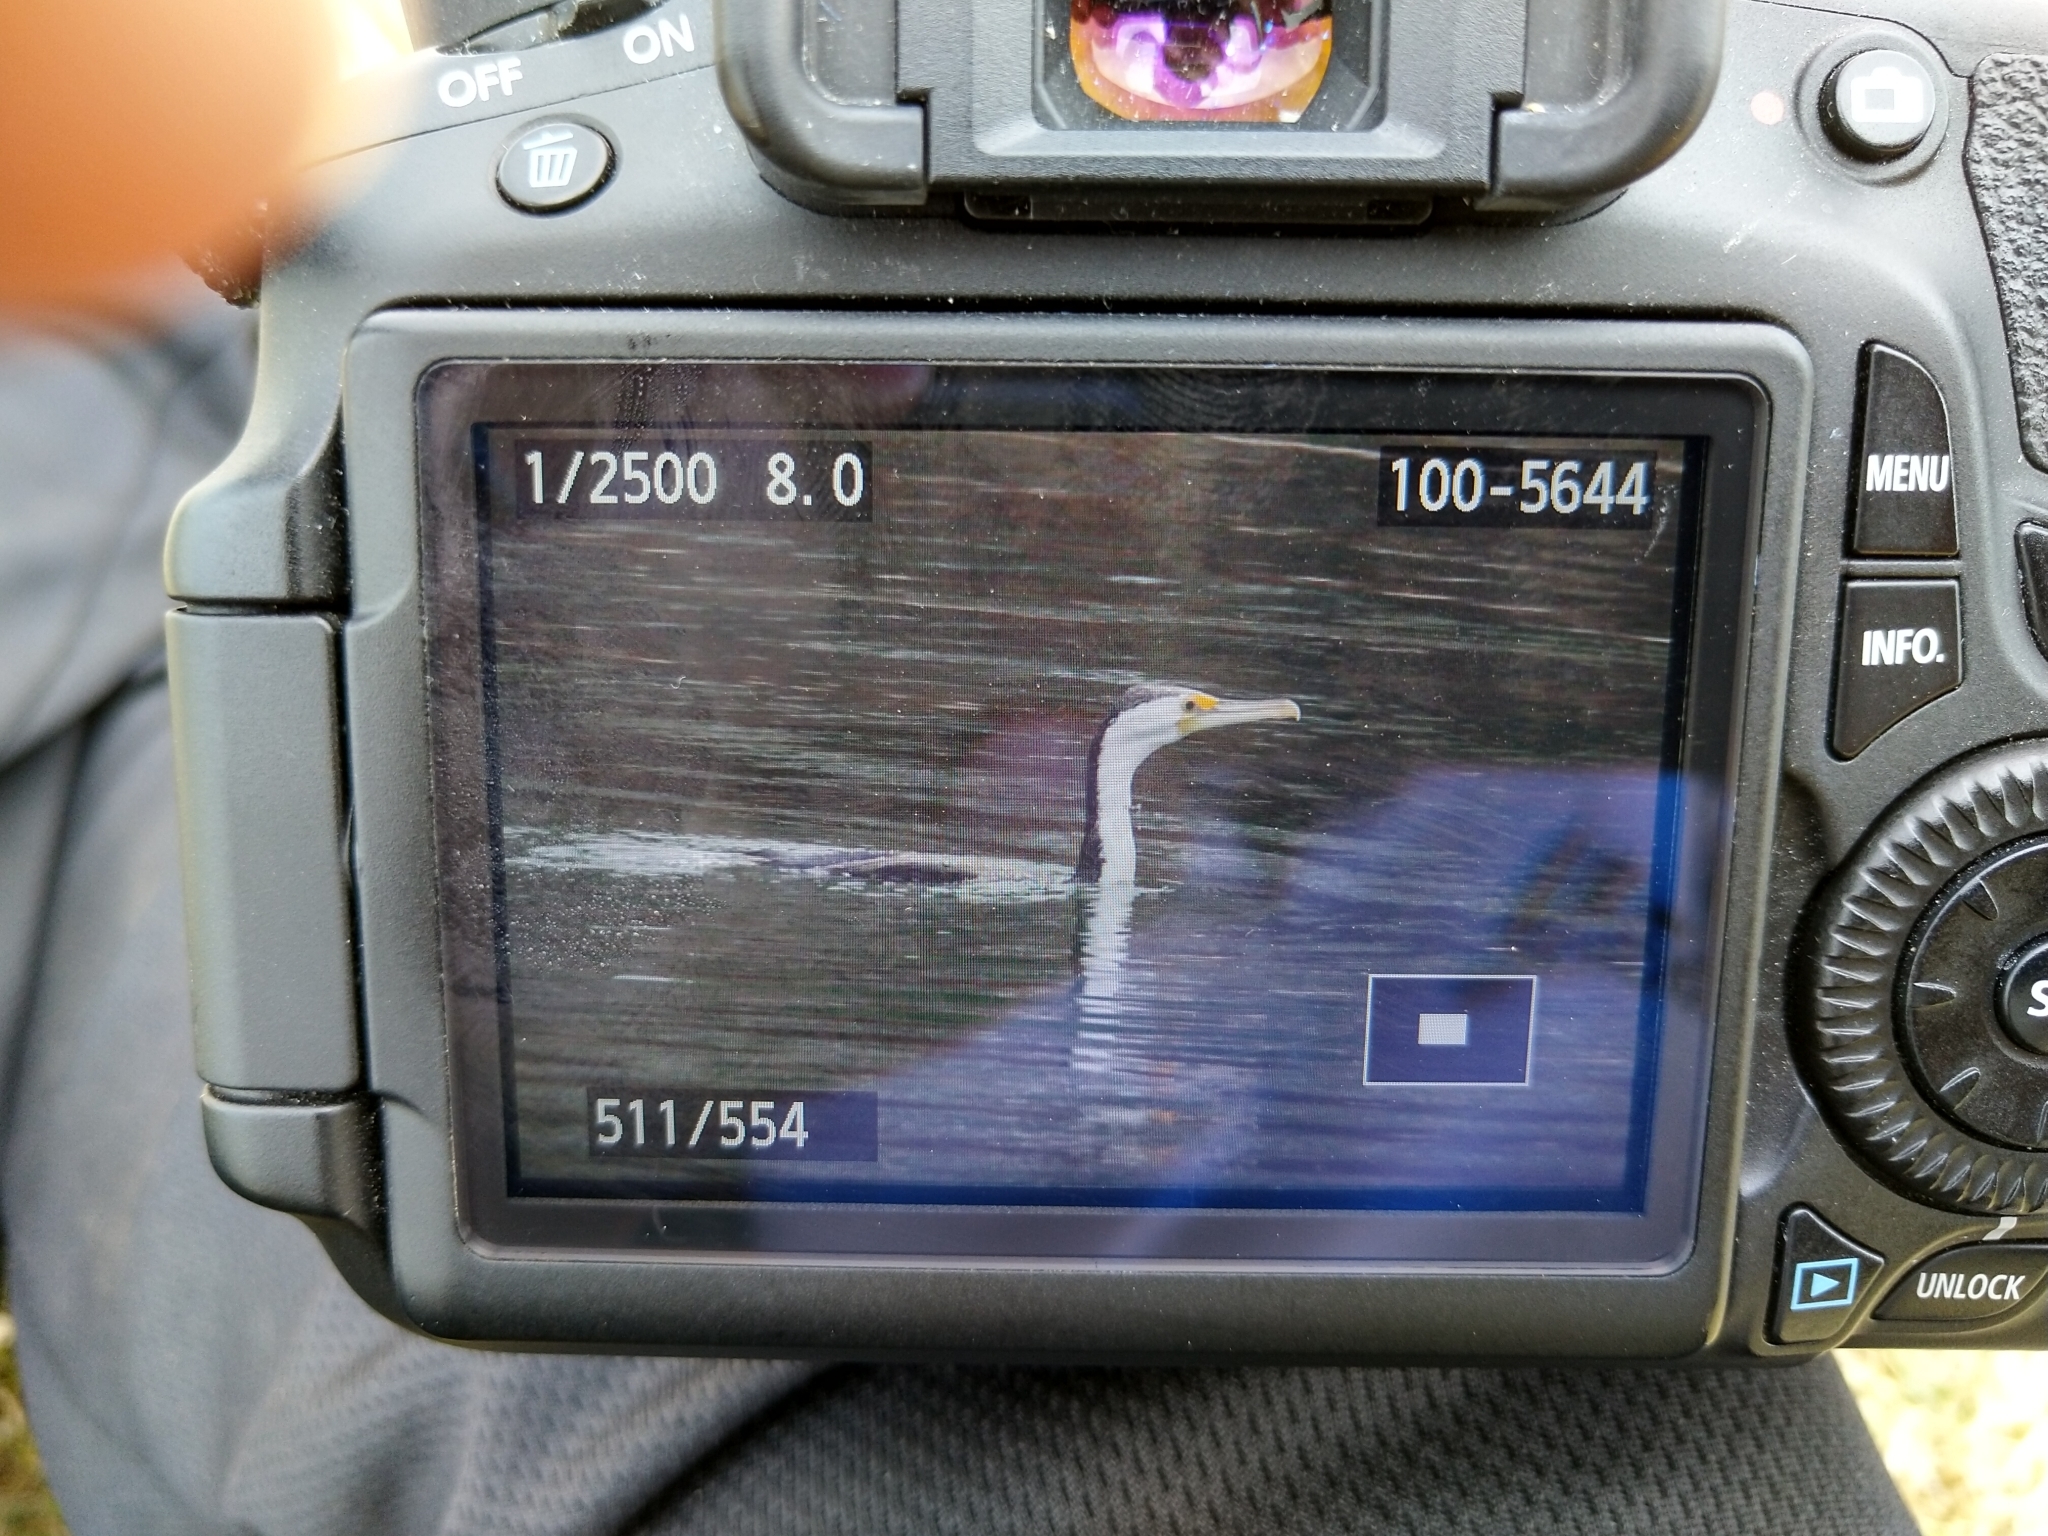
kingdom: Animalia
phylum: Chordata
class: Aves
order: Suliformes
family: Phalacrocoracidae
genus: Phalacrocorax
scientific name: Phalacrocorax varius
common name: Pied cormorant
